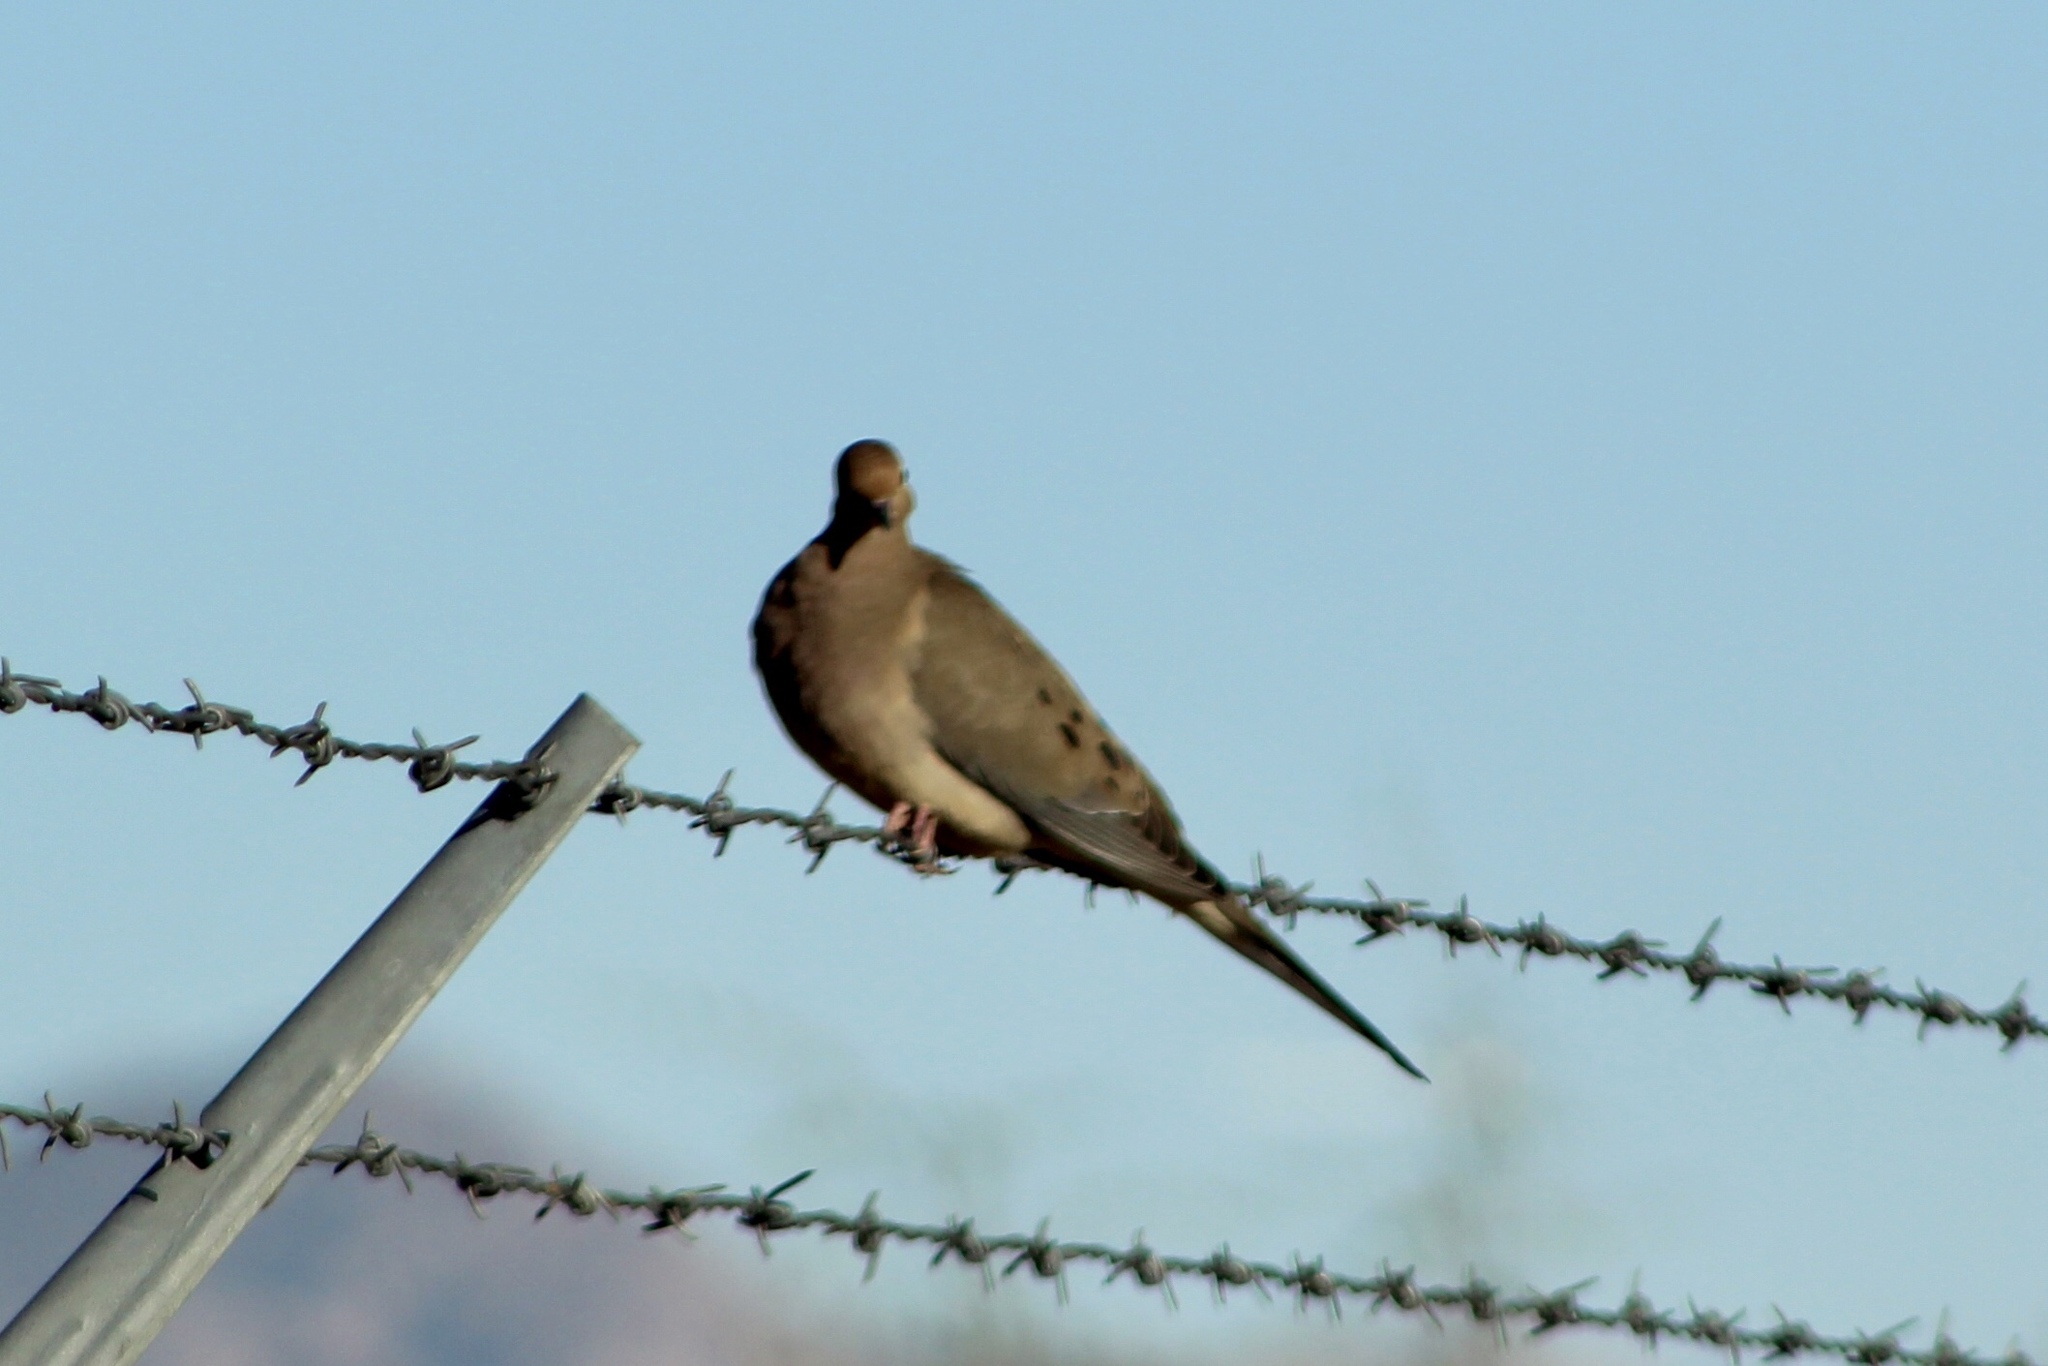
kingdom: Animalia
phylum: Chordata
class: Aves
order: Columbiformes
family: Columbidae
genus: Zenaida
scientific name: Zenaida macroura
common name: Mourning dove
